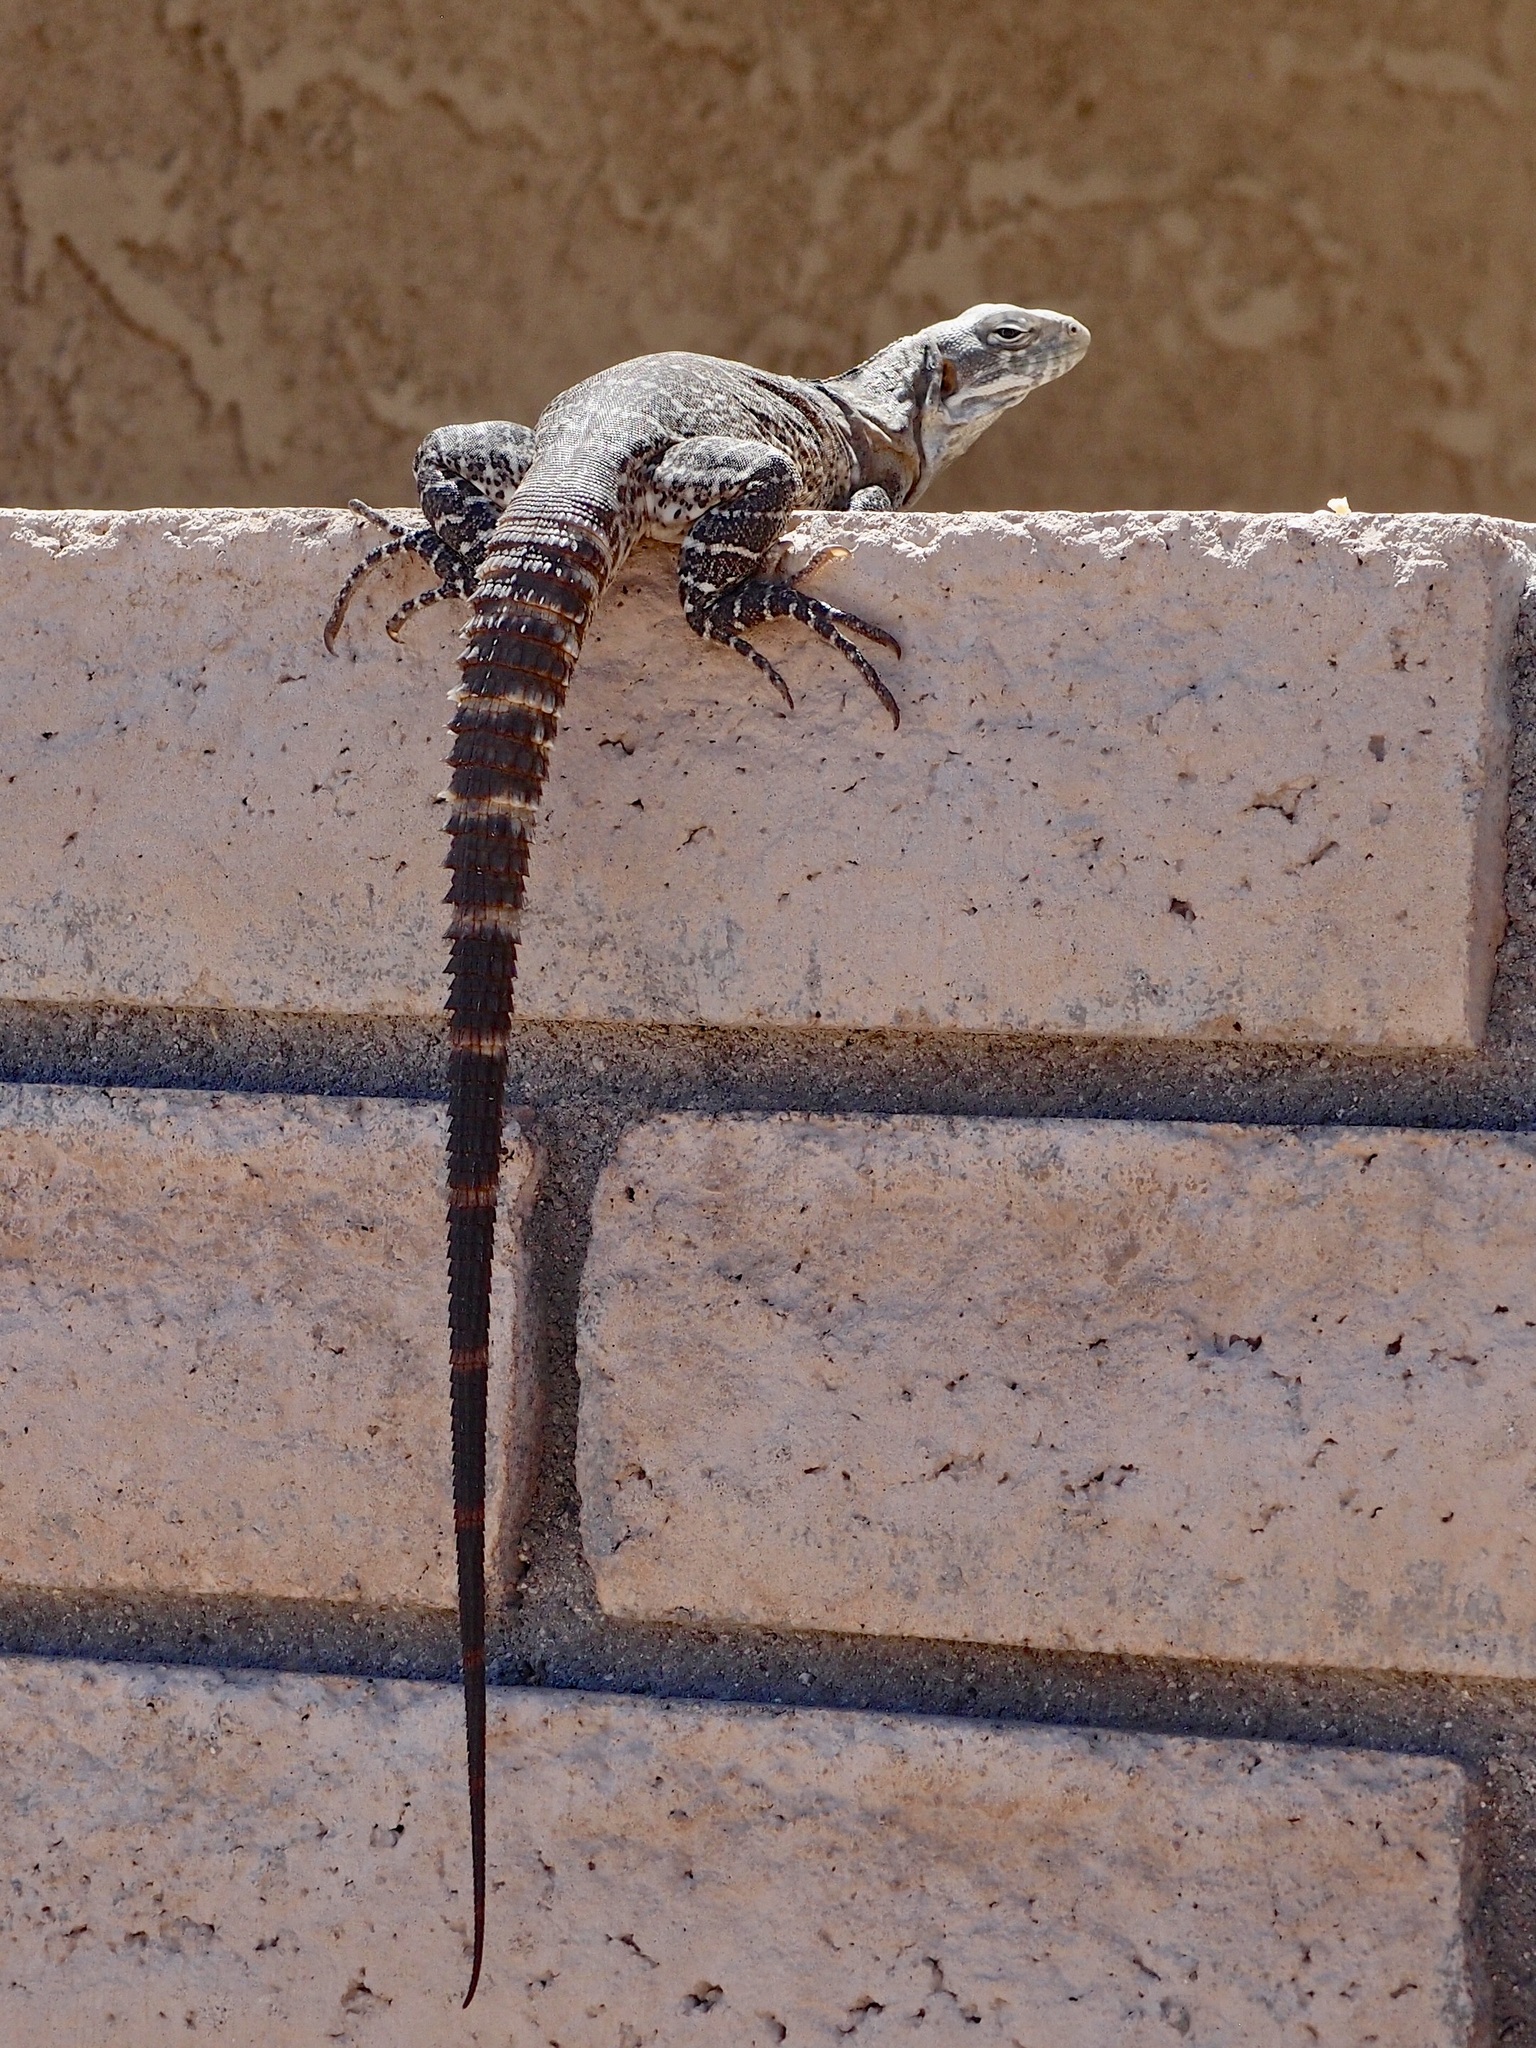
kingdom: Animalia
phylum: Chordata
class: Squamata
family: Iguanidae
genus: Ctenosaura
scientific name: Ctenosaura macrolopha
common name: Cape spinytail iguana
